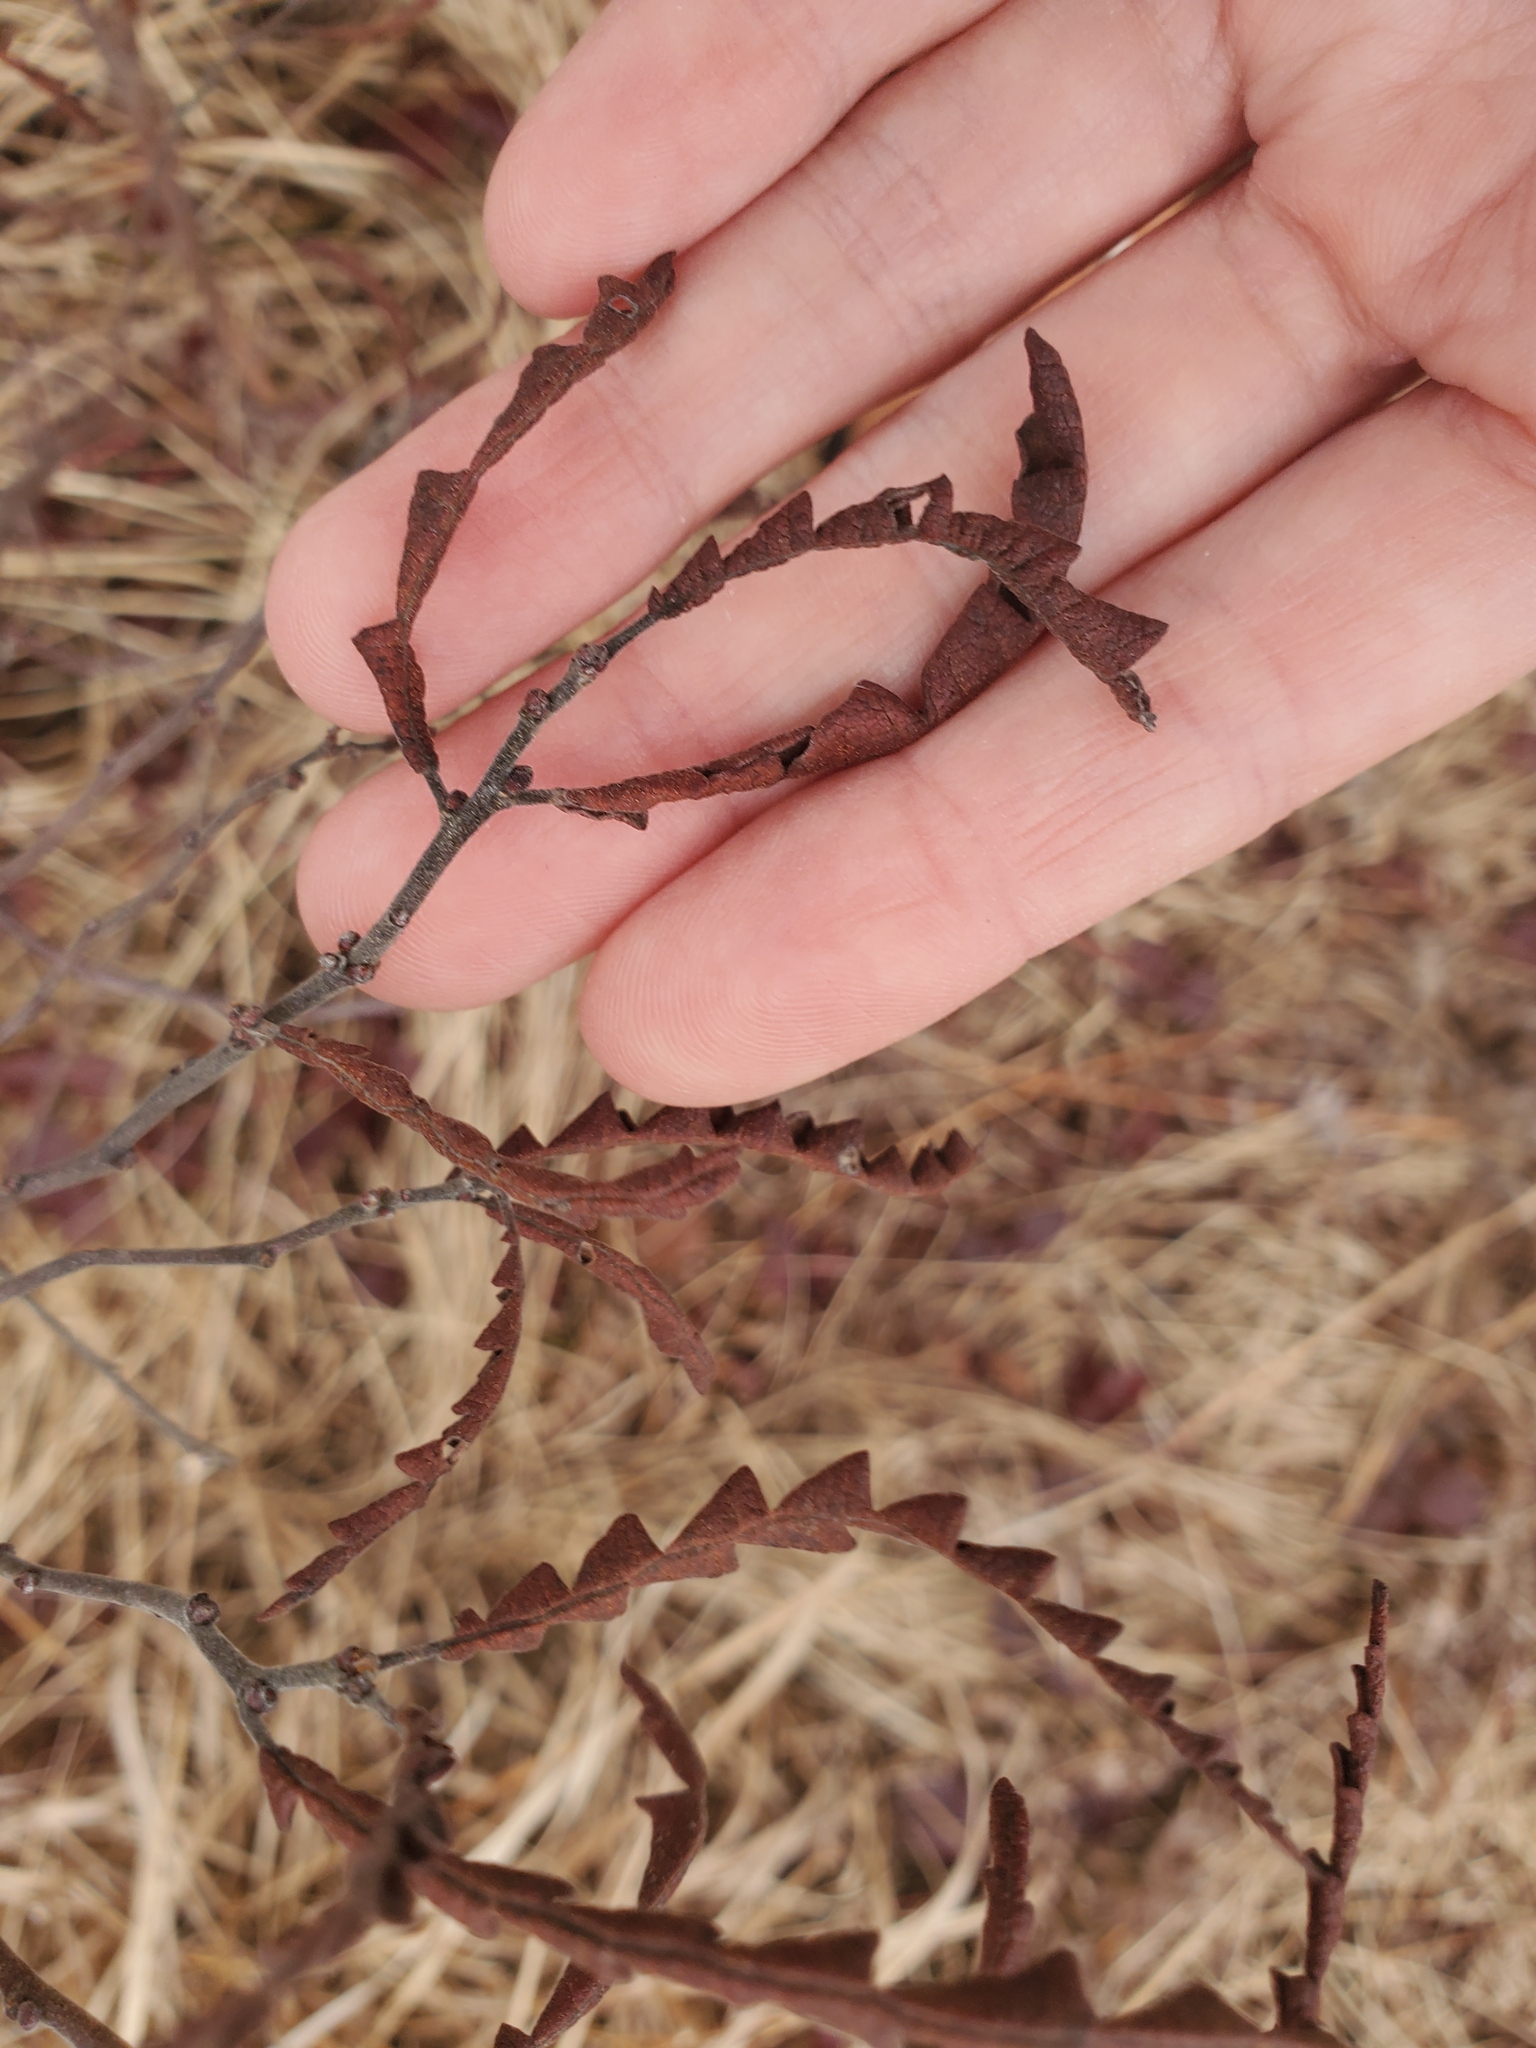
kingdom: Plantae
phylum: Tracheophyta
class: Magnoliopsida
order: Fagales
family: Myricaceae
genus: Comptonia
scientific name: Comptonia peregrina
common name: Sweet-fern
